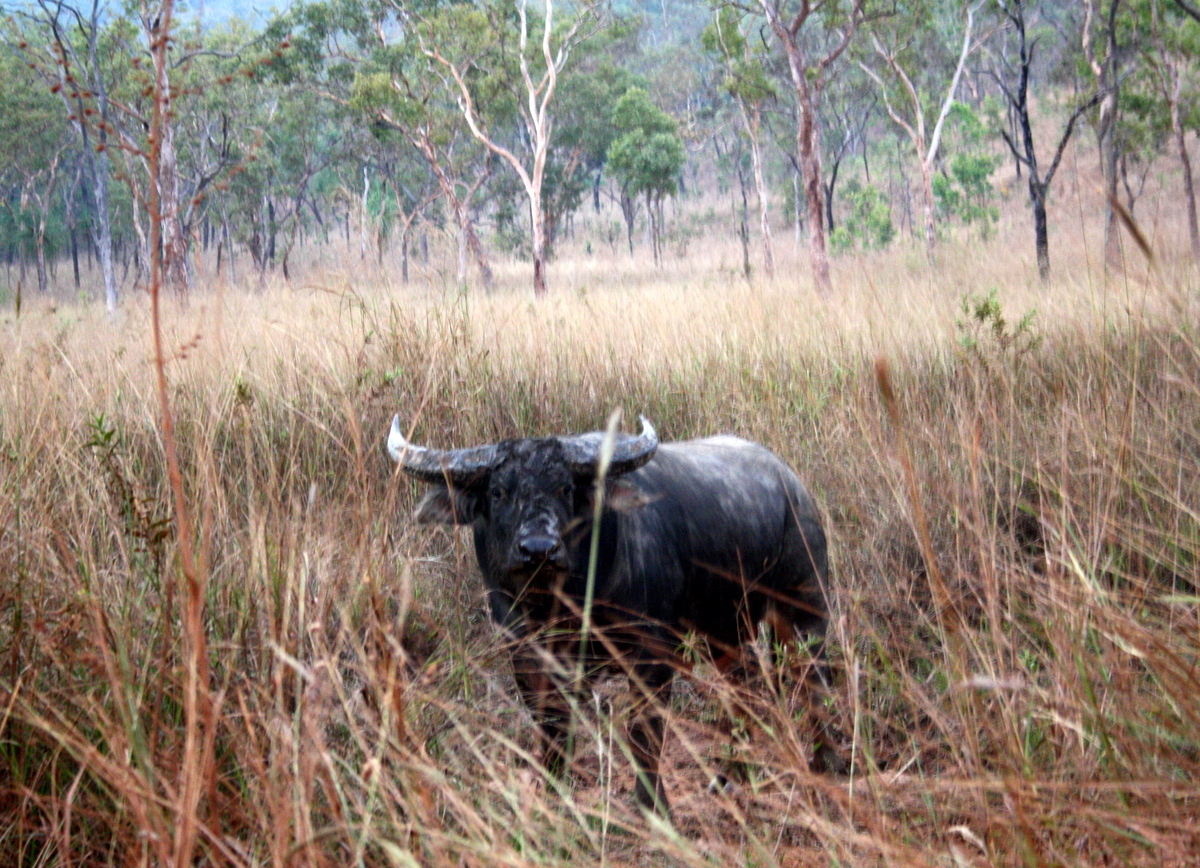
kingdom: Animalia
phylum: Chordata
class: Mammalia
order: Artiodactyla
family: Bovidae
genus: Bubalus
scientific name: Bubalus bubalis
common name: Water buffalo
